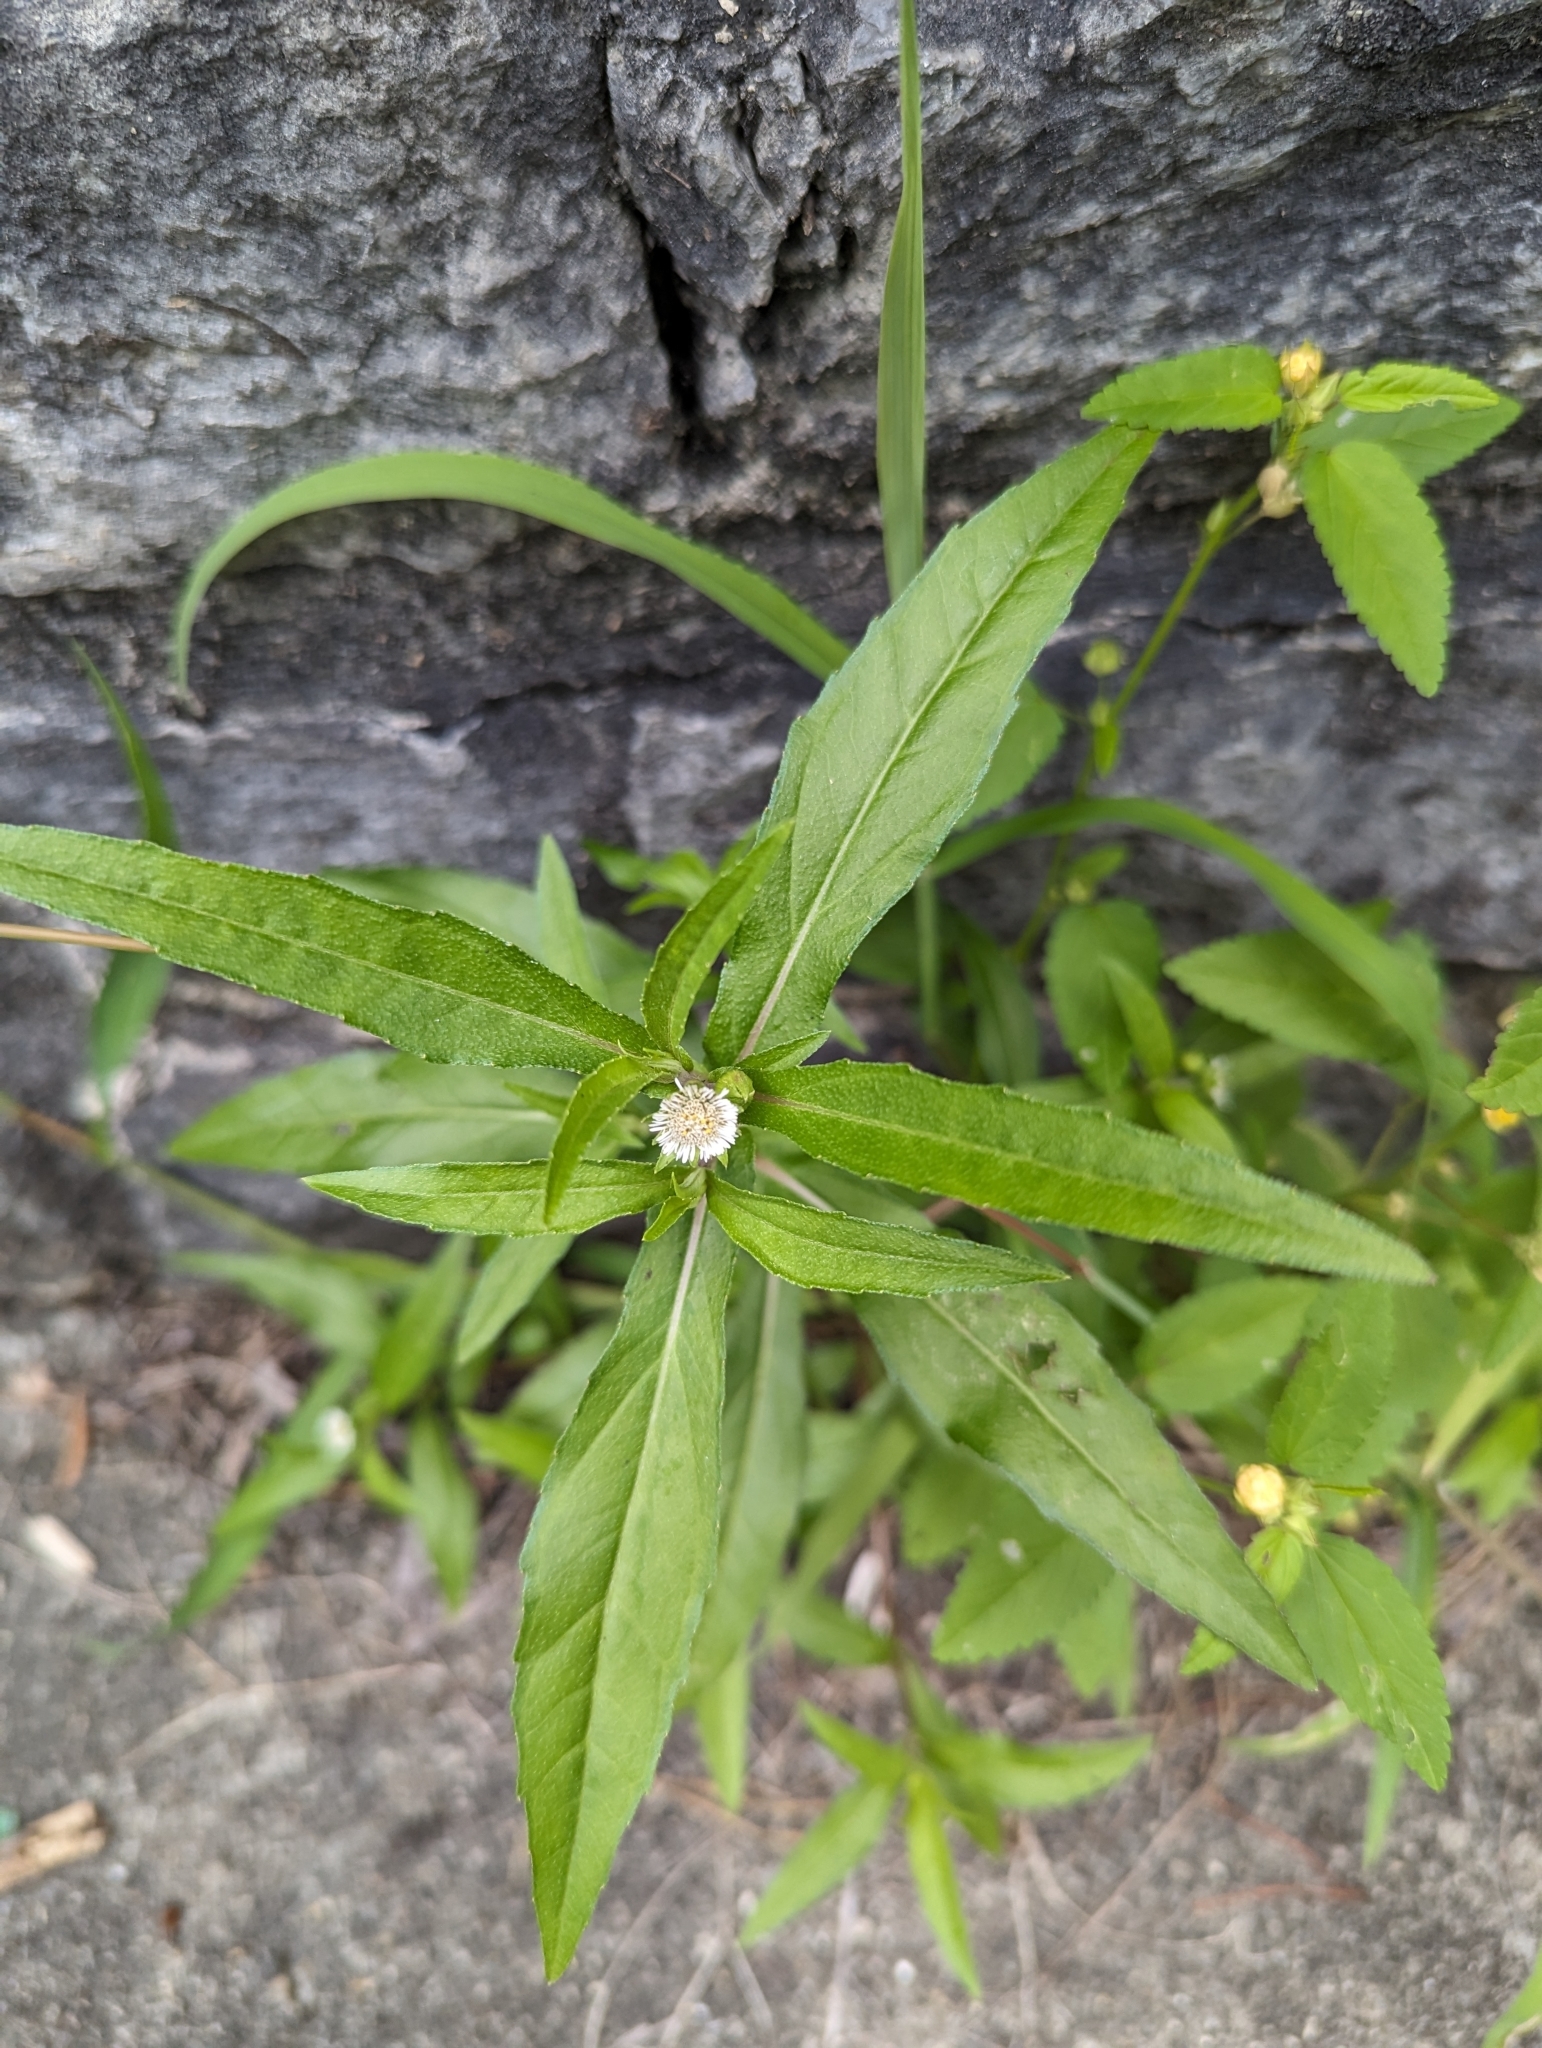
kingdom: Plantae
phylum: Tracheophyta
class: Magnoliopsida
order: Asterales
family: Asteraceae
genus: Eclipta
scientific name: Eclipta prostrata
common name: False daisy
